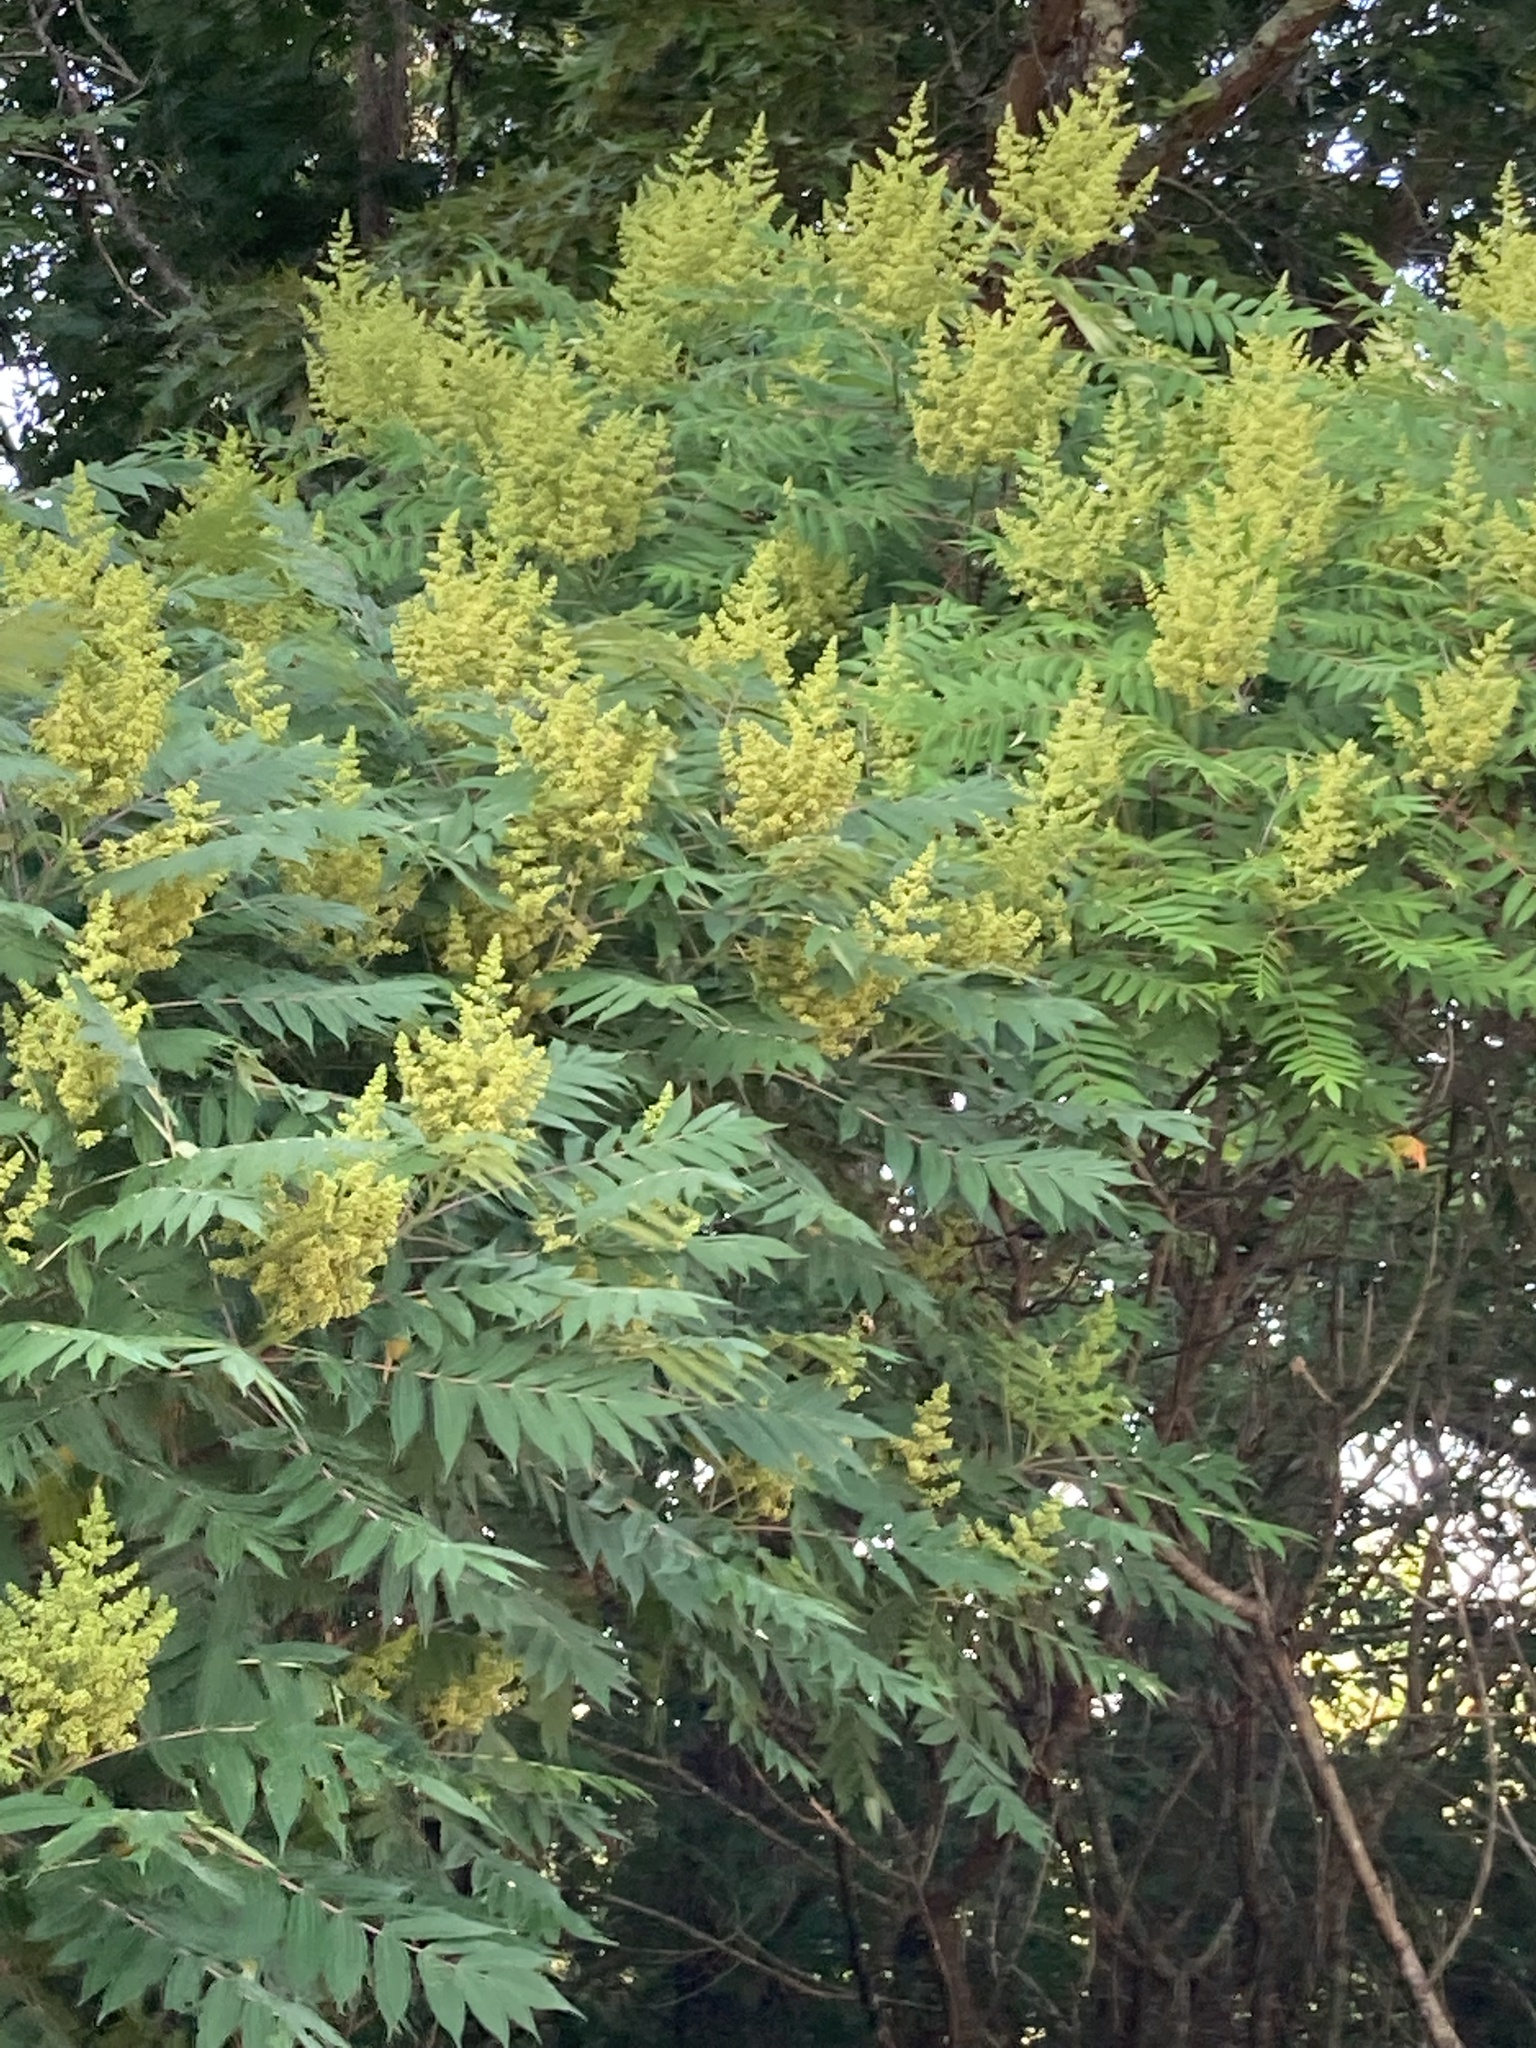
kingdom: Plantae
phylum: Tracheophyta
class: Magnoliopsida
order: Sapindales
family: Anacardiaceae
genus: Rhus
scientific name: Rhus glabra
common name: Scarlet sumac
